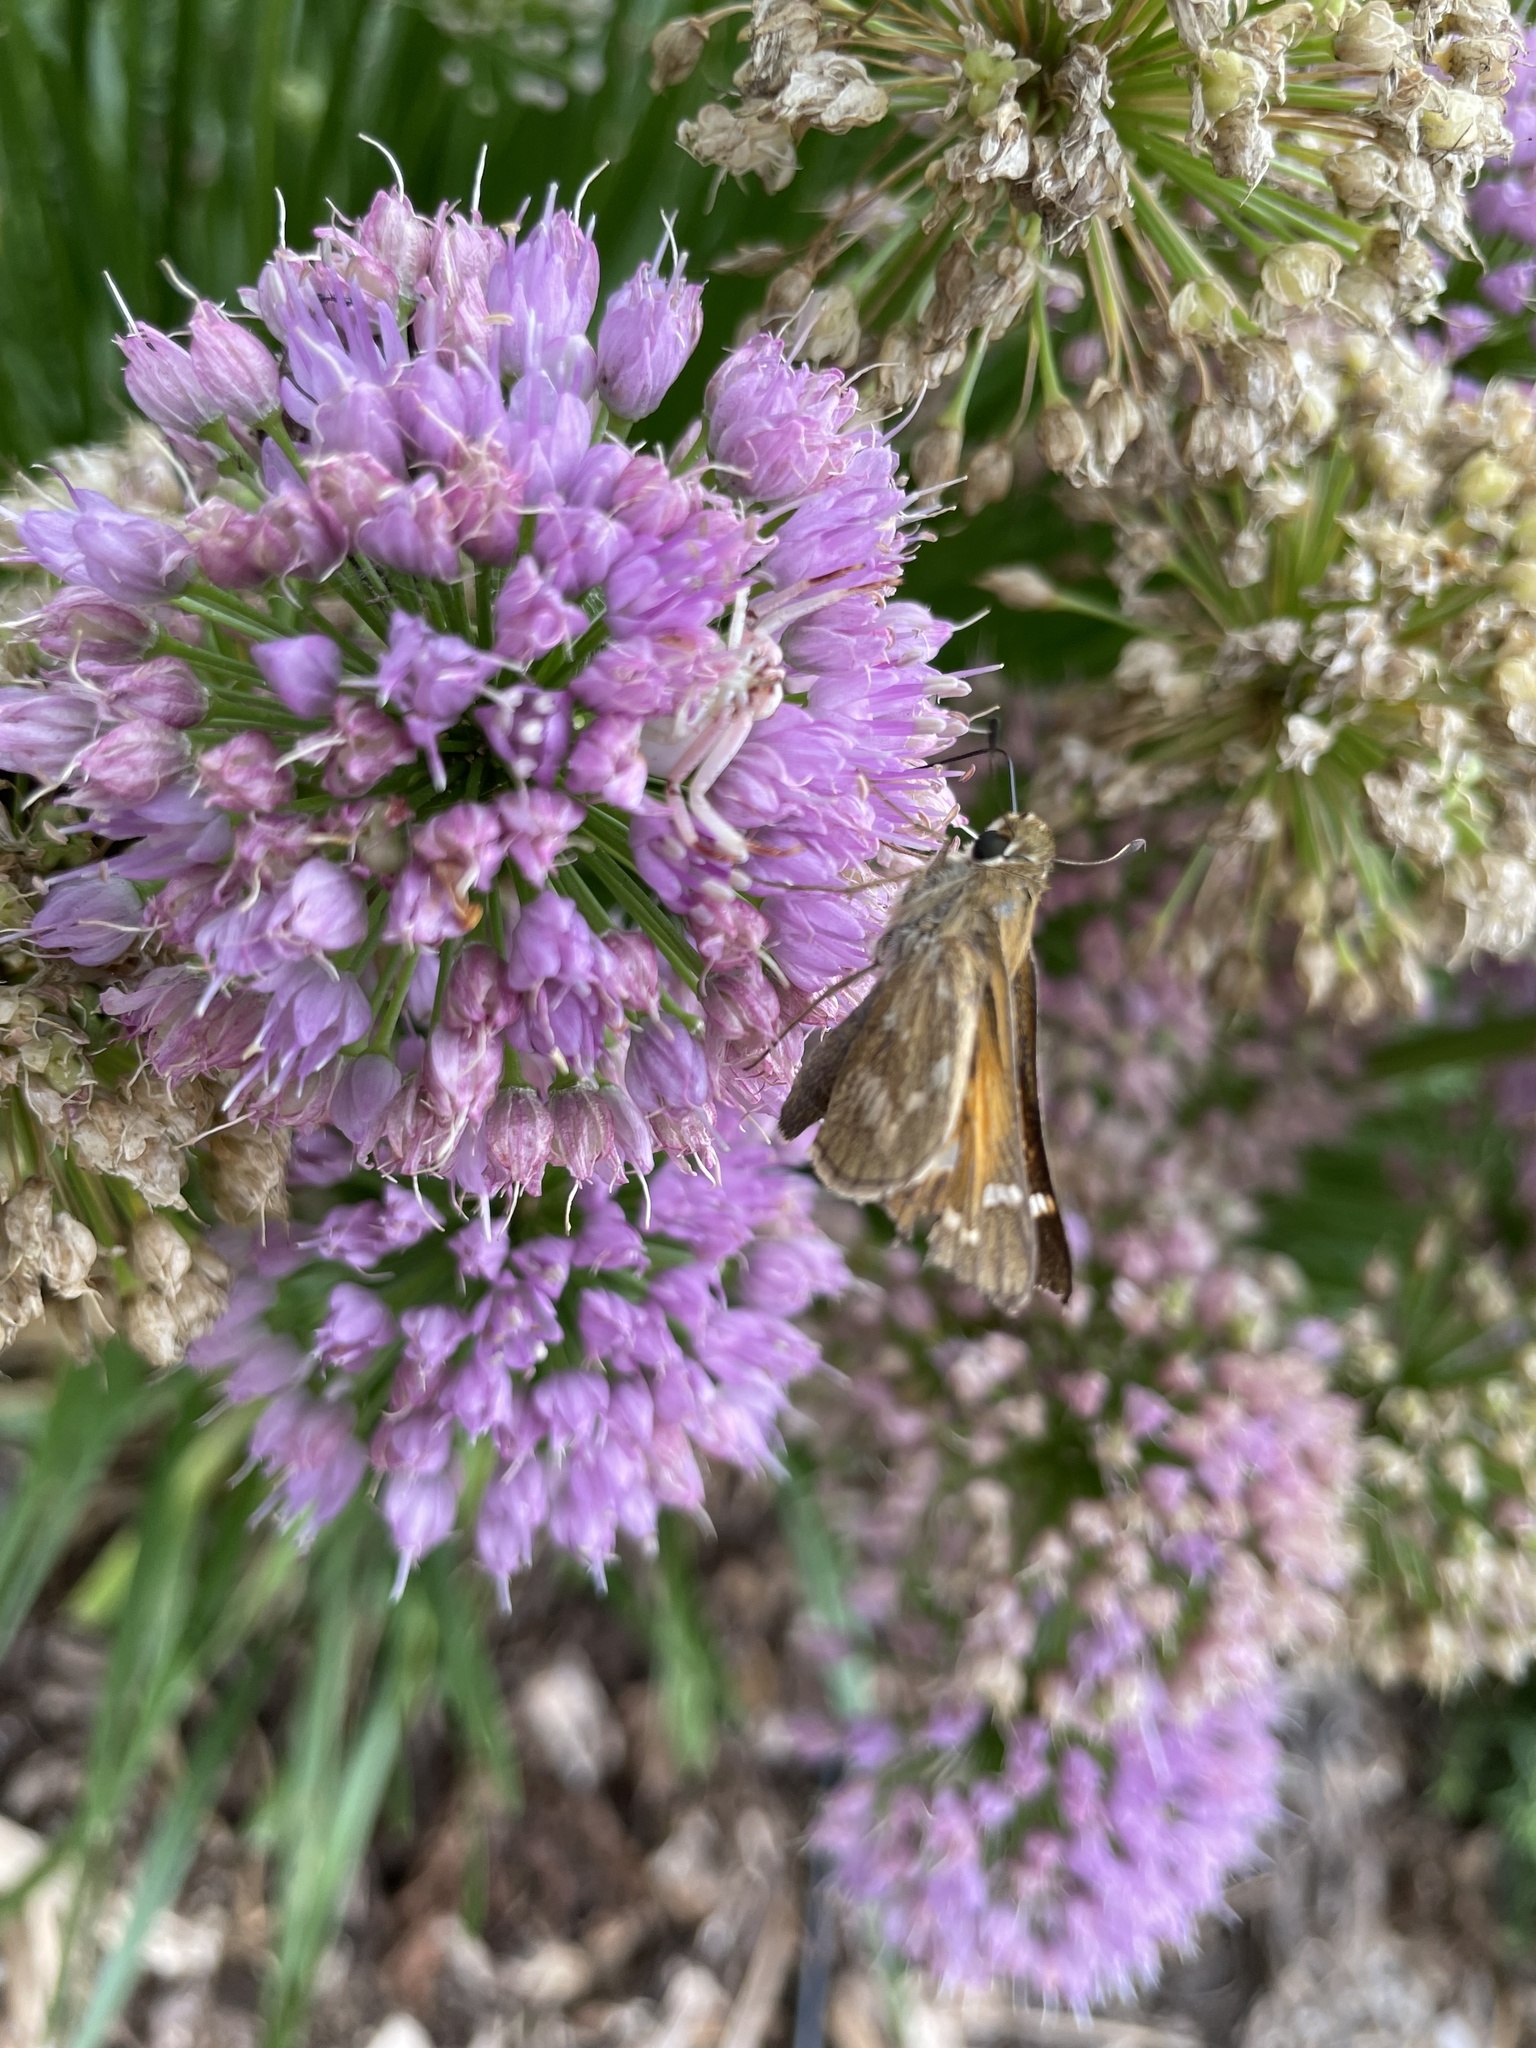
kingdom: Animalia
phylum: Arthropoda
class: Insecta
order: Lepidoptera
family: Hesperiidae
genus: Atalopedes
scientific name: Atalopedes
